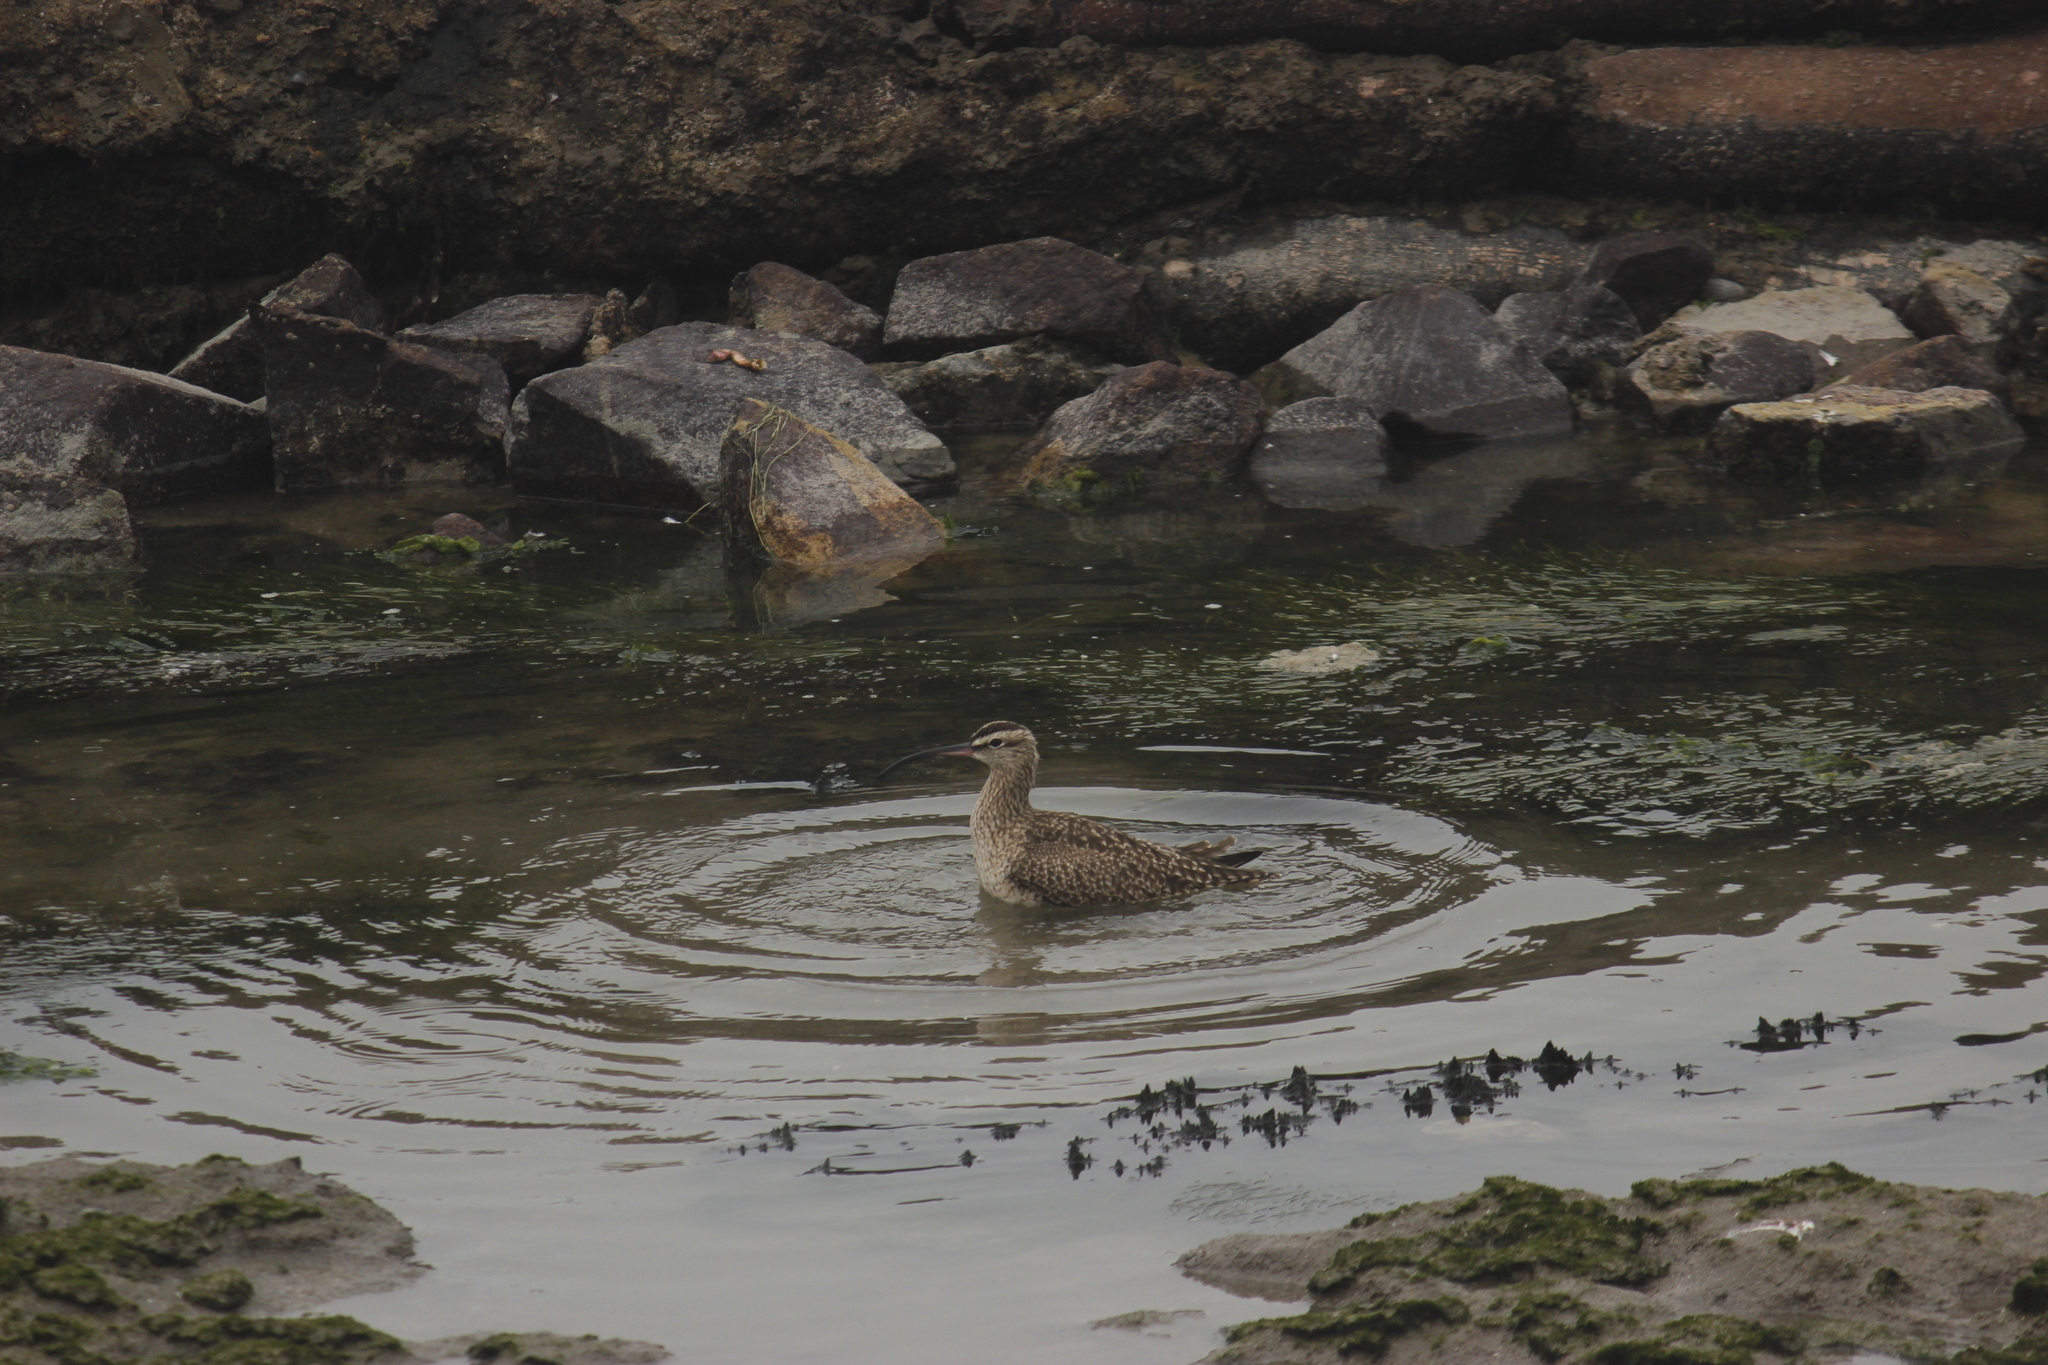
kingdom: Animalia
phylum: Chordata
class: Aves
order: Charadriiformes
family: Scolopacidae
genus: Numenius
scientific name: Numenius phaeopus
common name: Whimbrel
